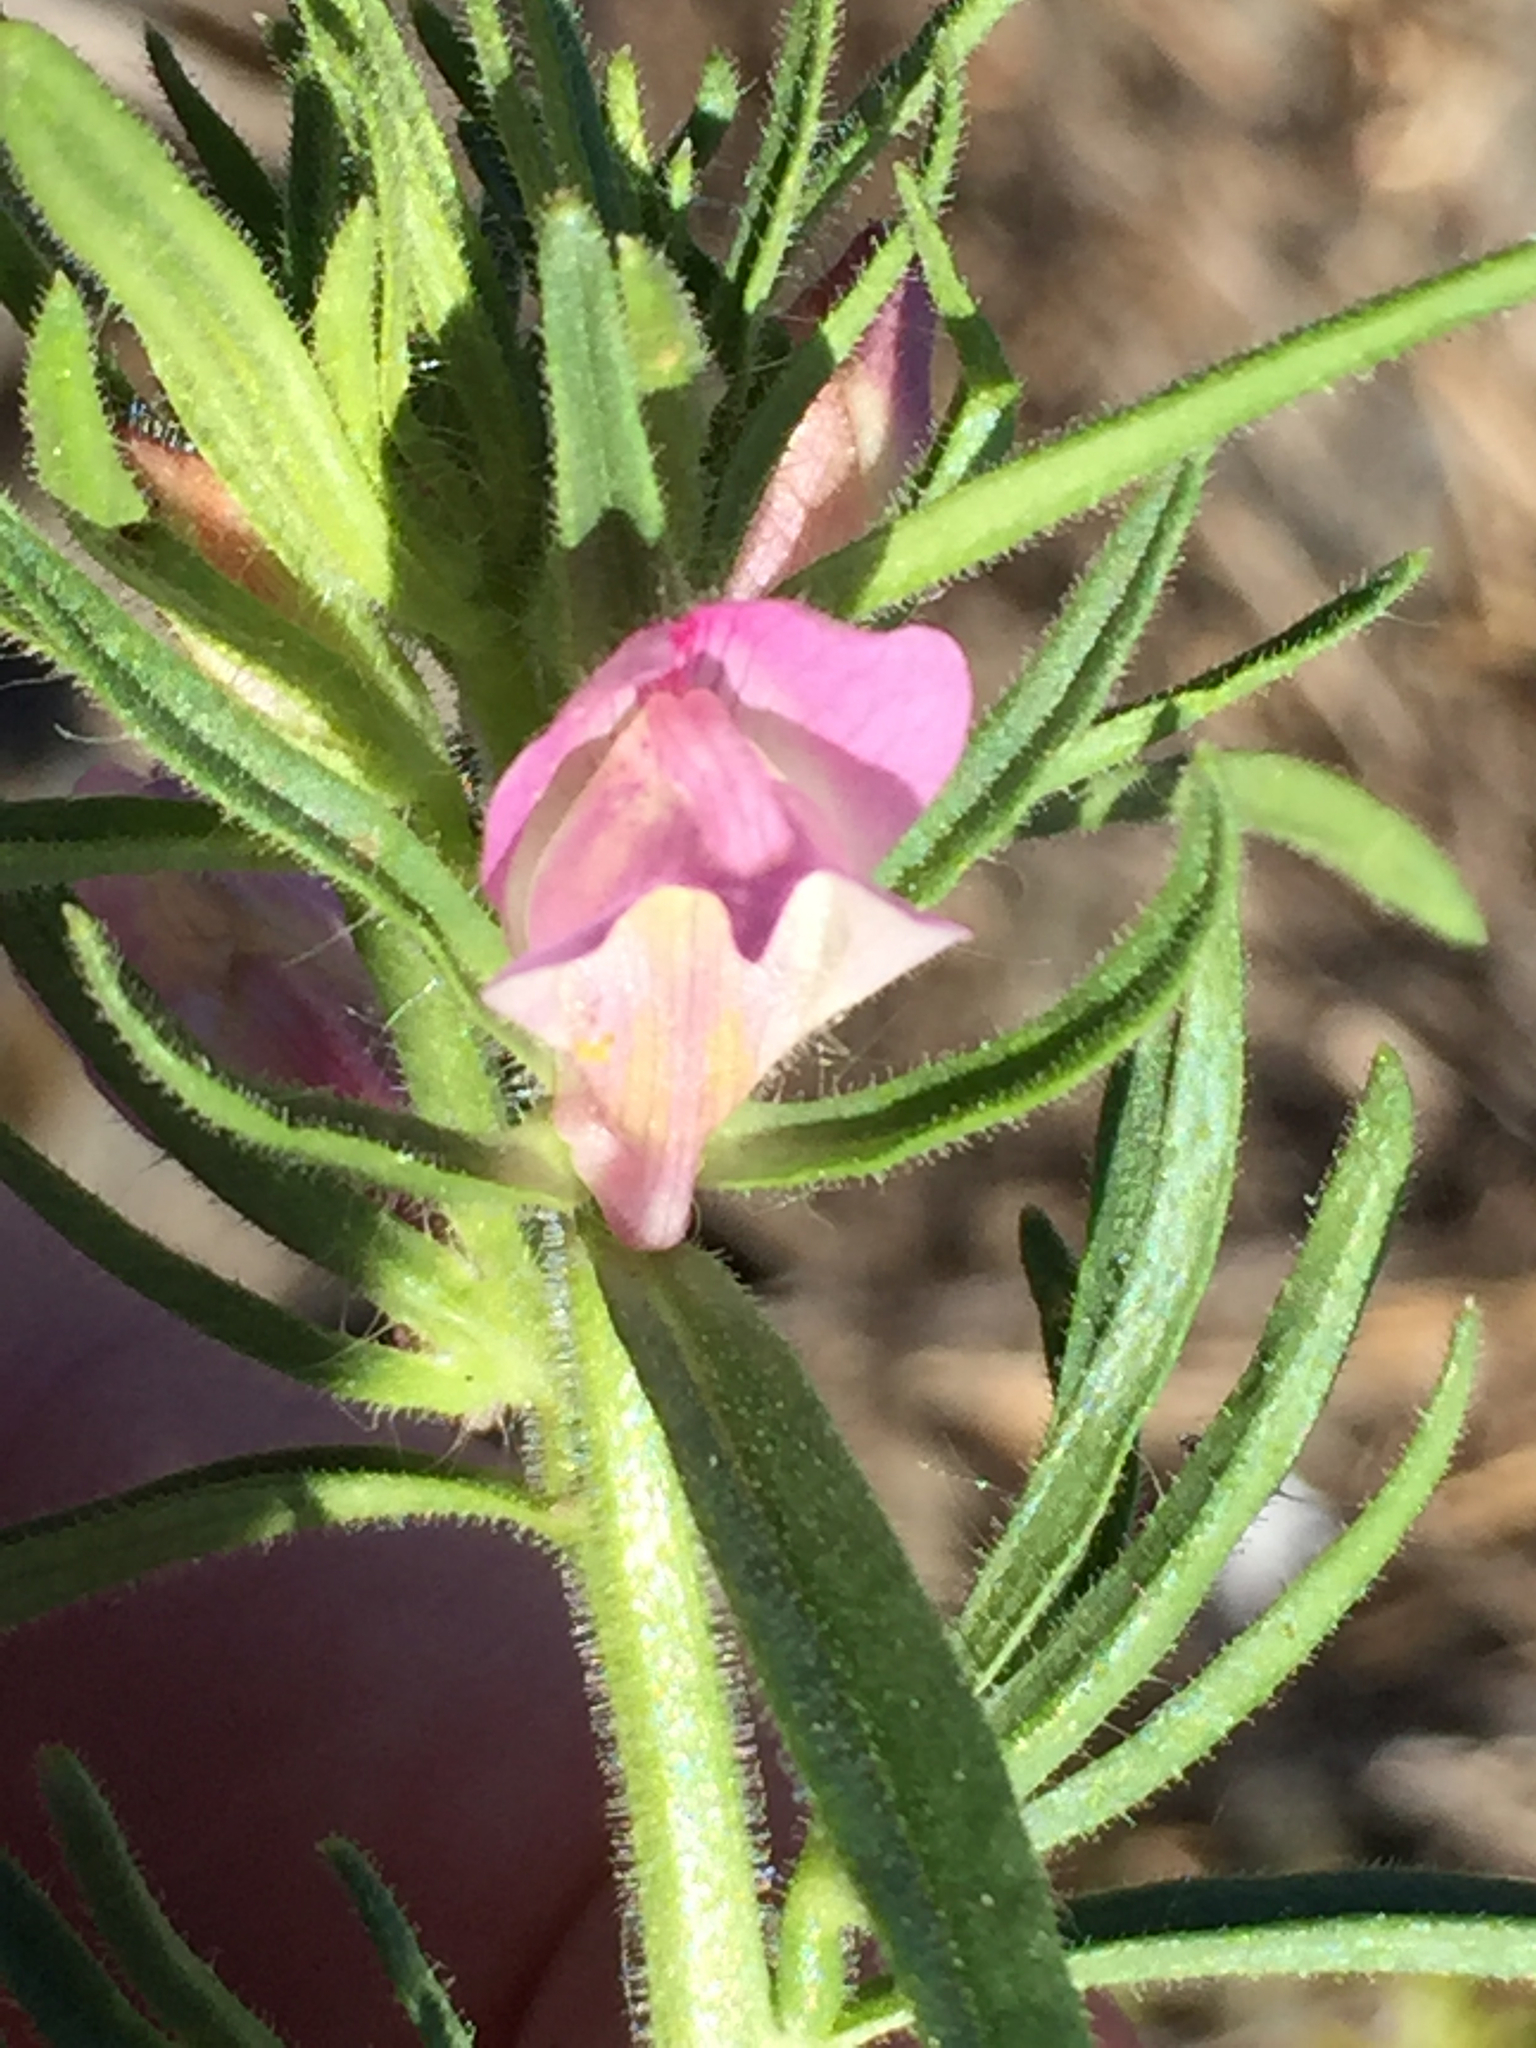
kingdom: Plantae
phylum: Tracheophyta
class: Magnoliopsida
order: Lamiales
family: Plantaginaceae
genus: Misopates
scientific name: Misopates orontium
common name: Weasel's-snout
